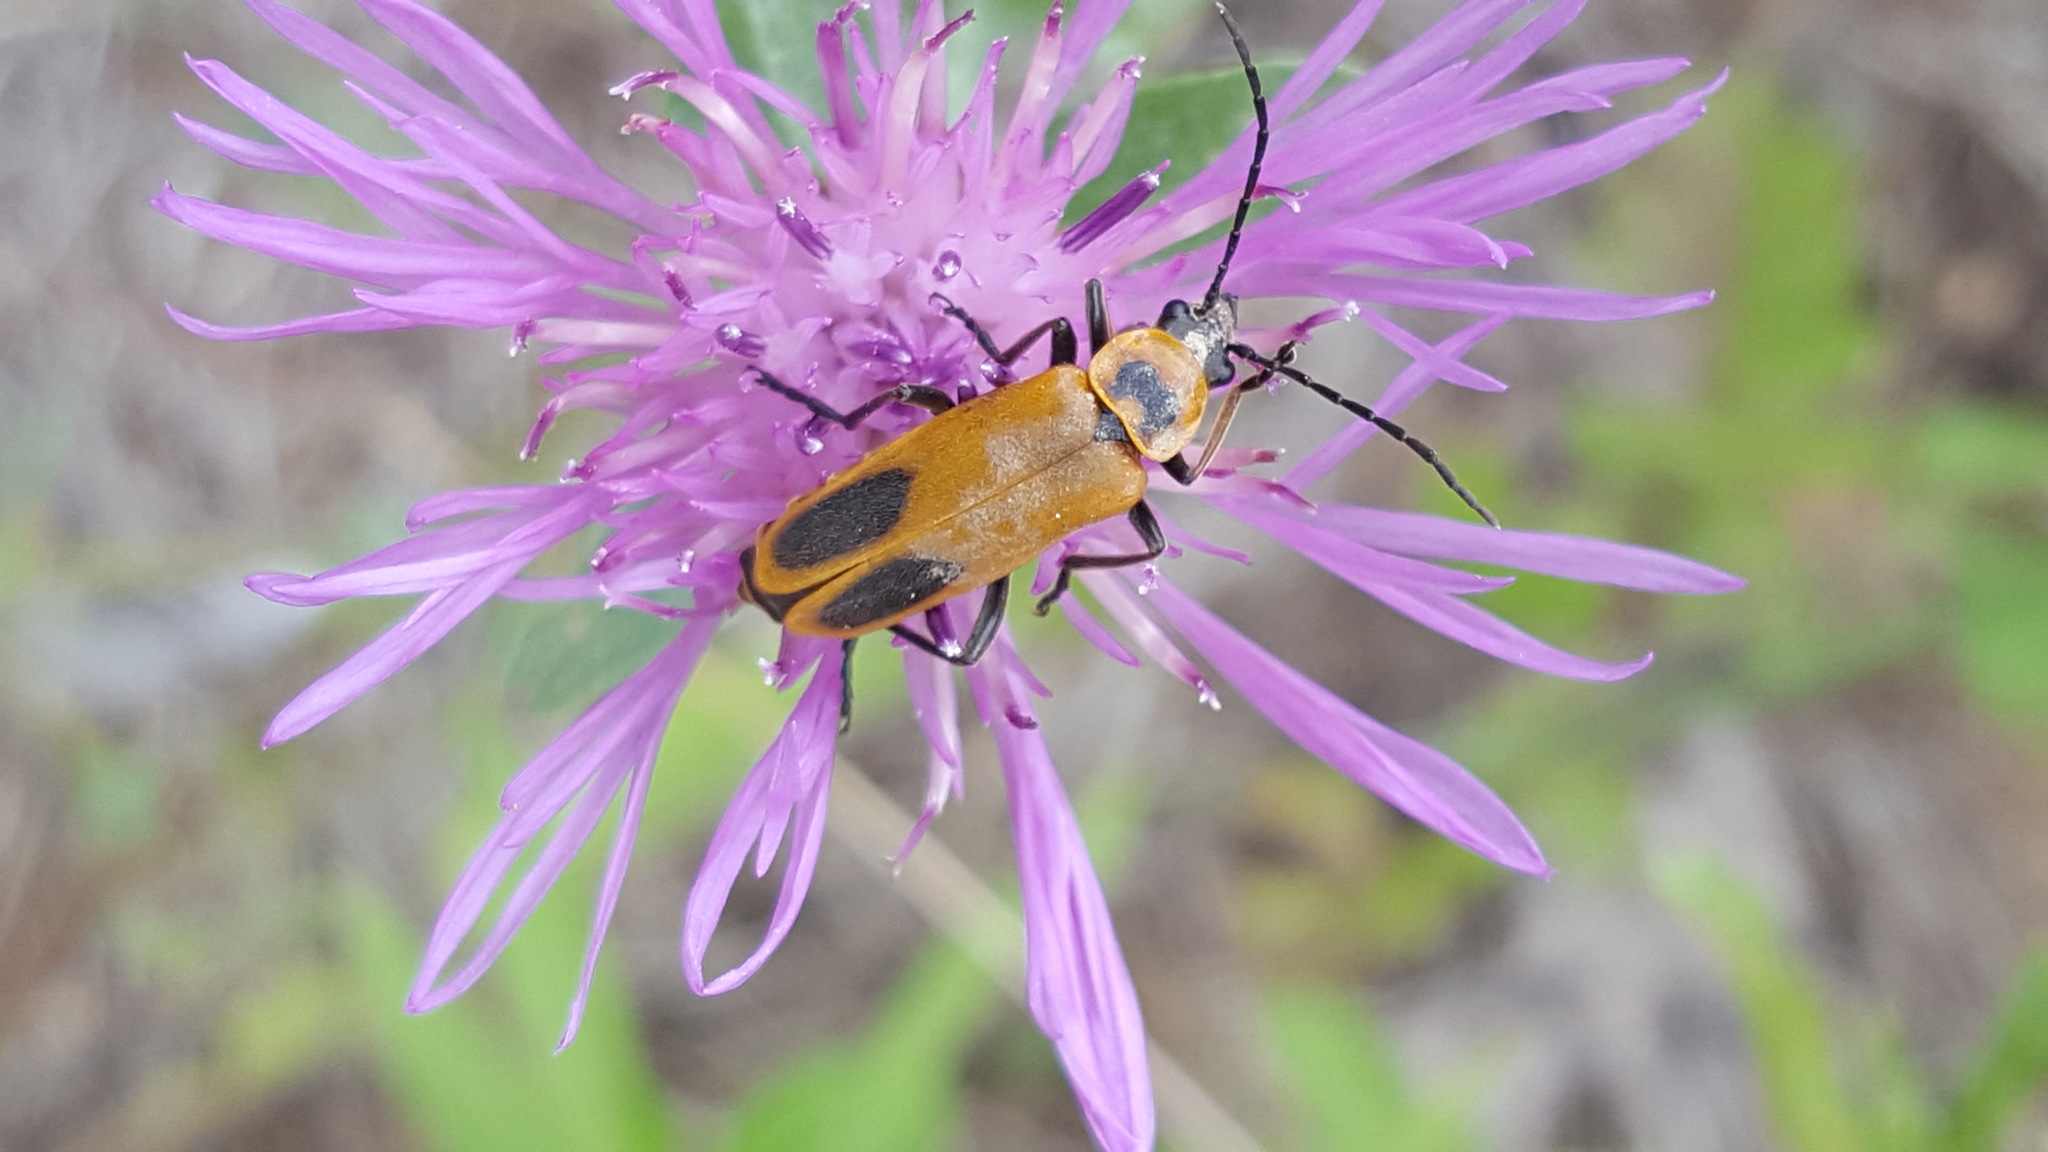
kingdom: Animalia
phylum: Arthropoda
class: Insecta
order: Coleoptera
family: Cantharidae
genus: Chauliognathus
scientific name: Chauliognathus pensylvanicus
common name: Goldenrod soldier beetle
